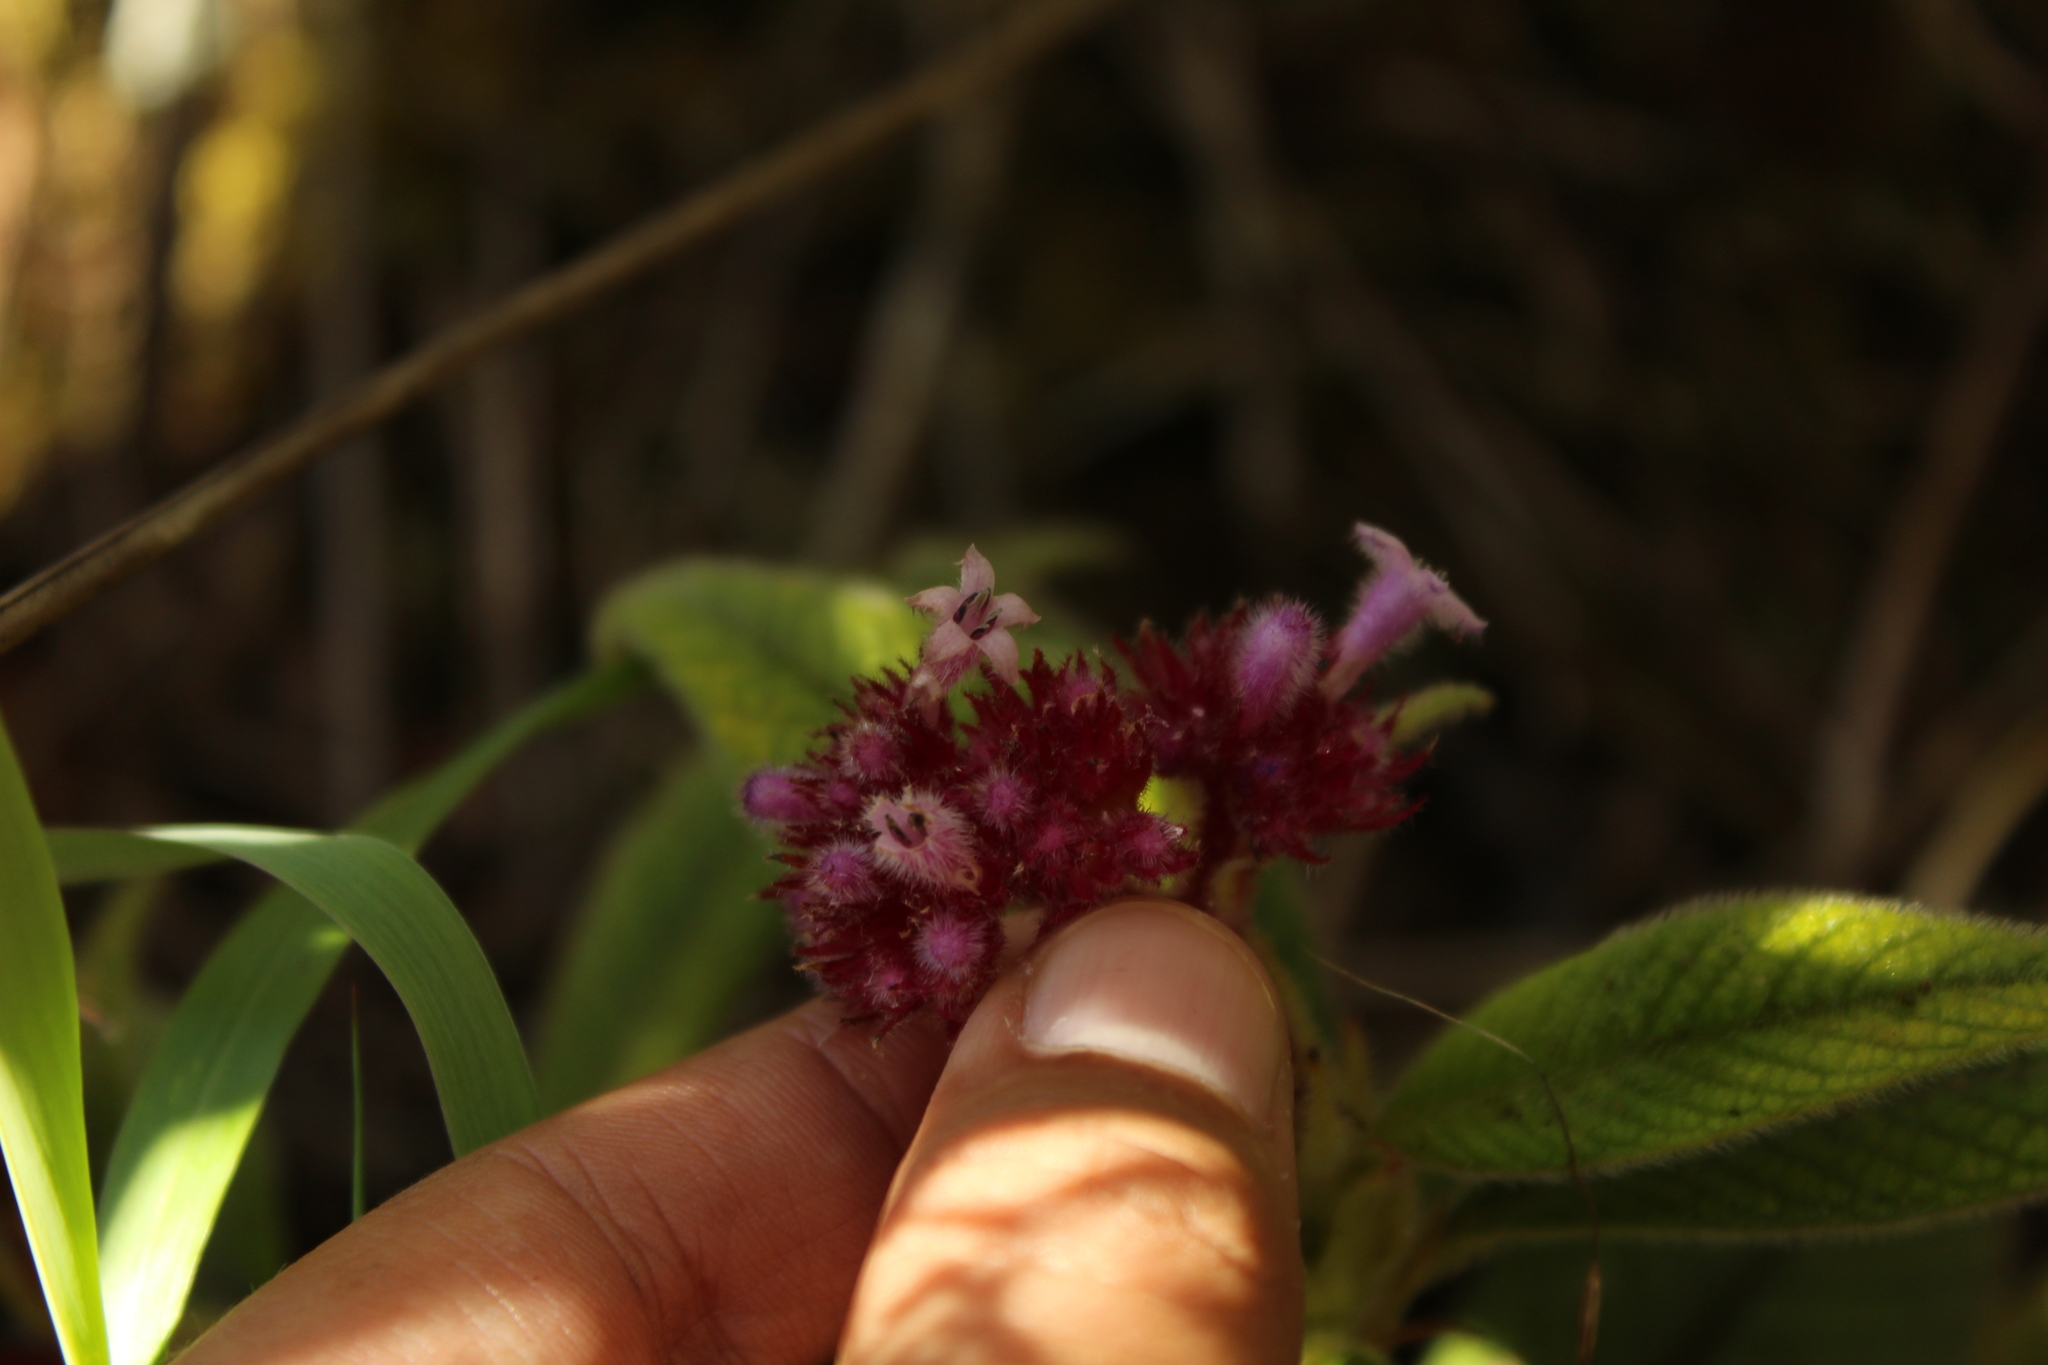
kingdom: Plantae
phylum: Tracheophyta
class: Magnoliopsida
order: Gentianales
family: Rubiaceae
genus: Palicourea
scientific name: Palicourea erythrocephala
